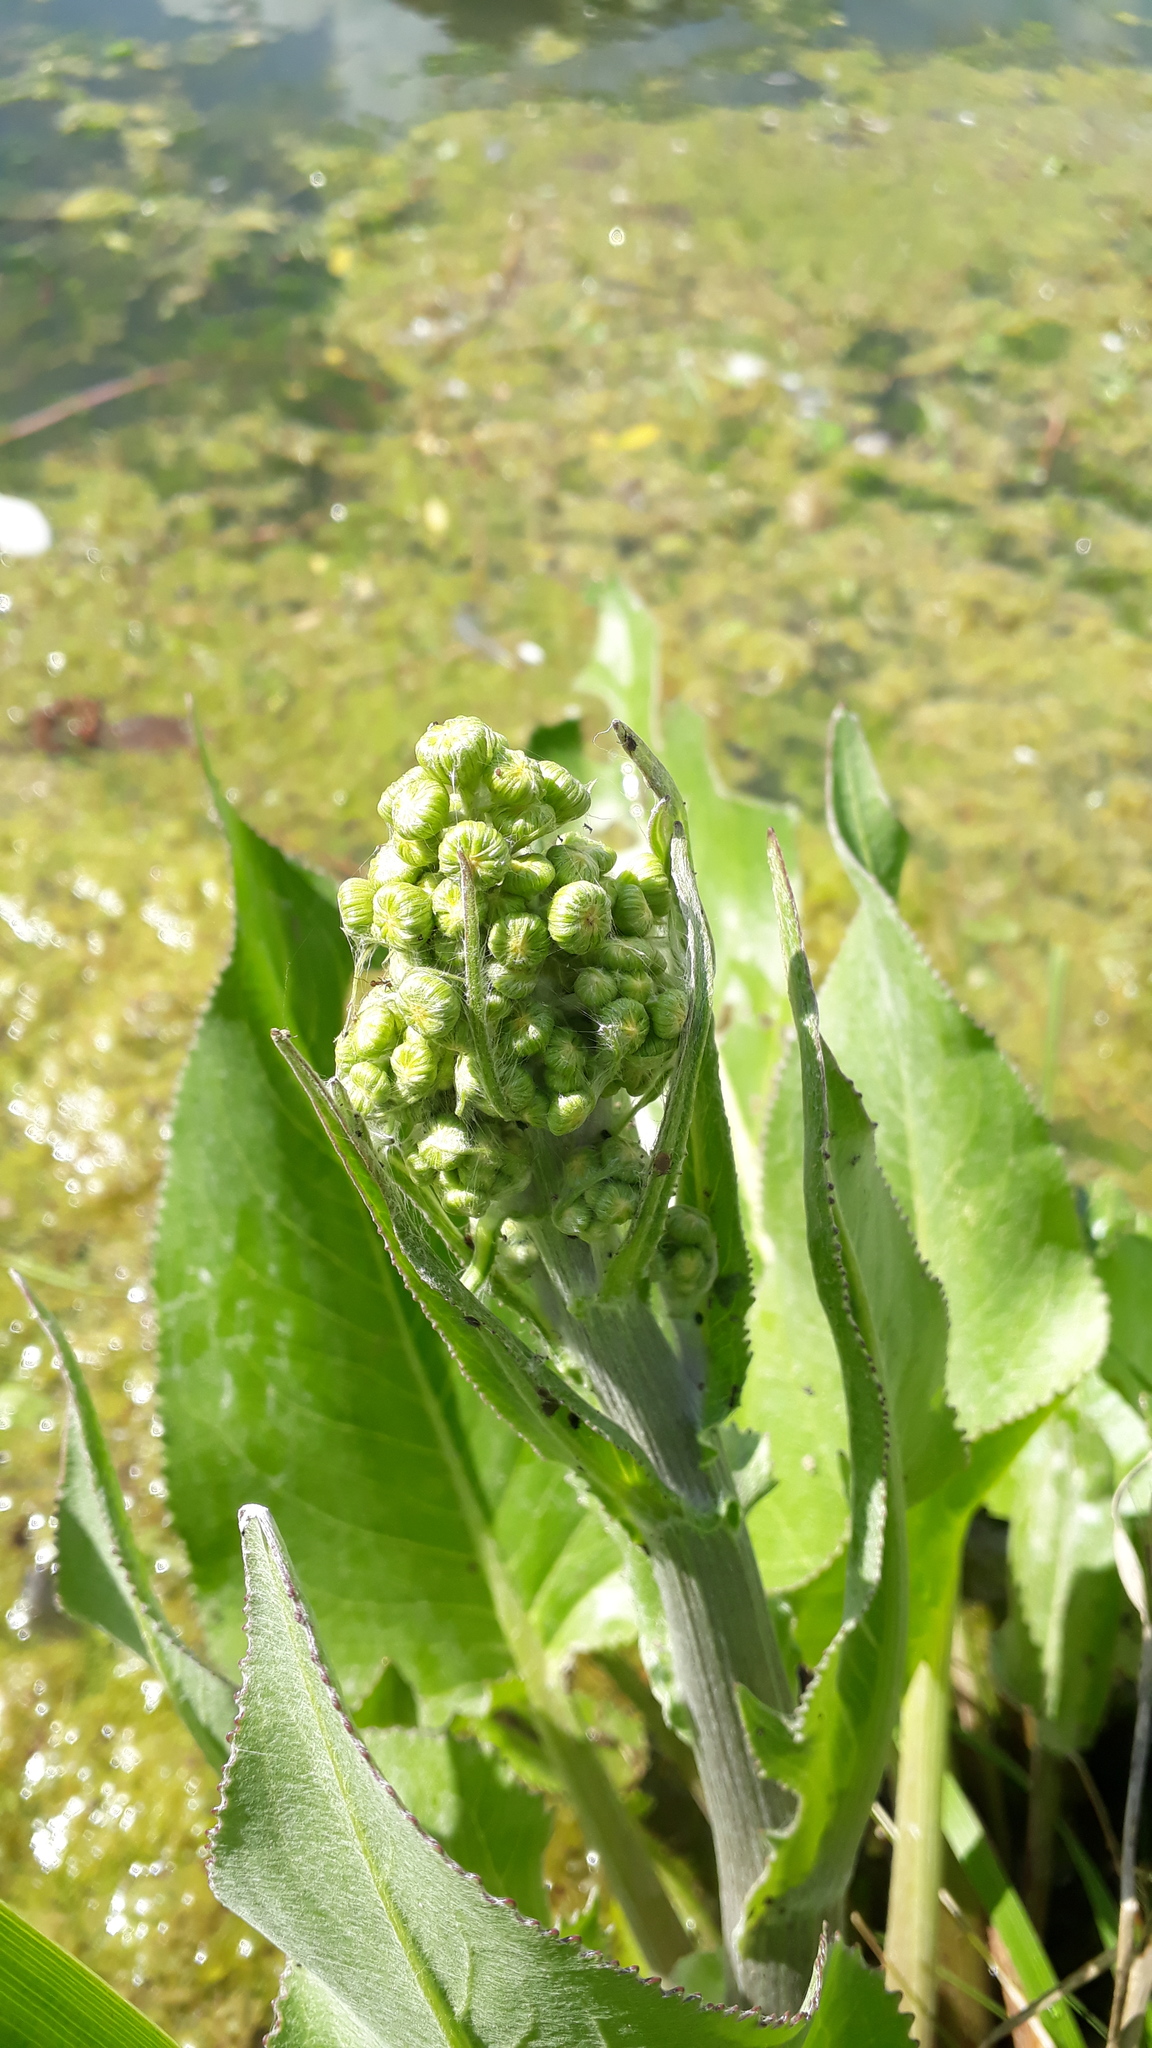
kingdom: Plantae
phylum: Tracheophyta
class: Magnoliopsida
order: Asterales
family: Asteraceae
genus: Senecio
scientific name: Senecio bonariensis
